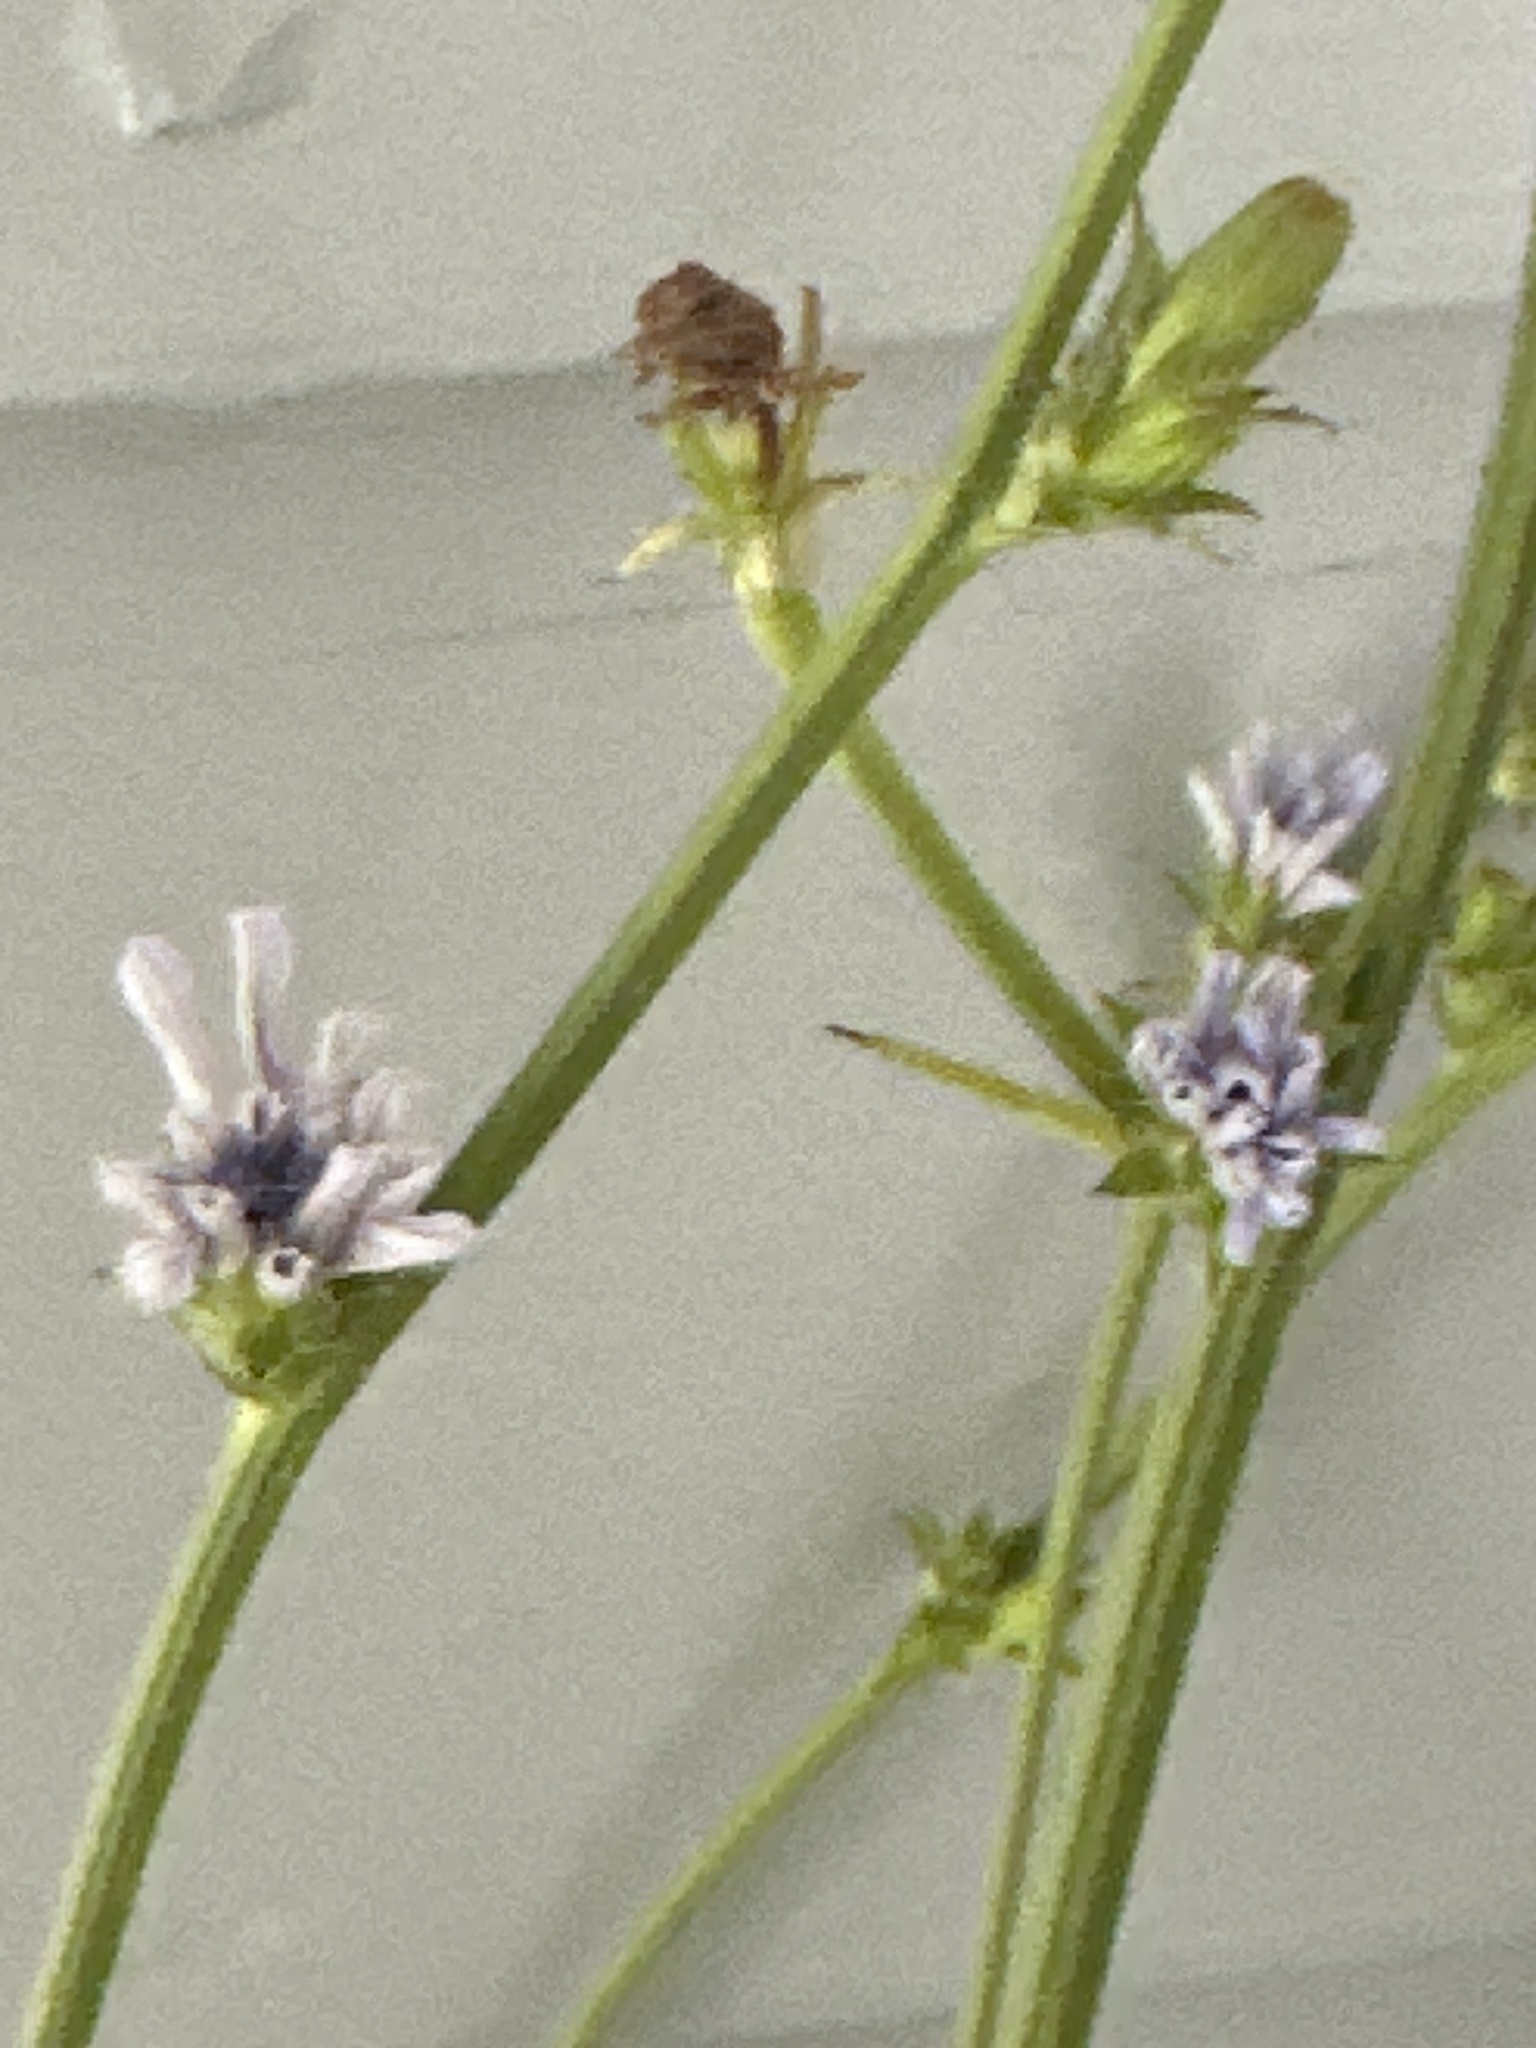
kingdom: Plantae
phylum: Tracheophyta
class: Magnoliopsida
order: Asterales
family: Asteraceae
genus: Cichorium
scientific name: Cichorium intybus
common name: Chicory
